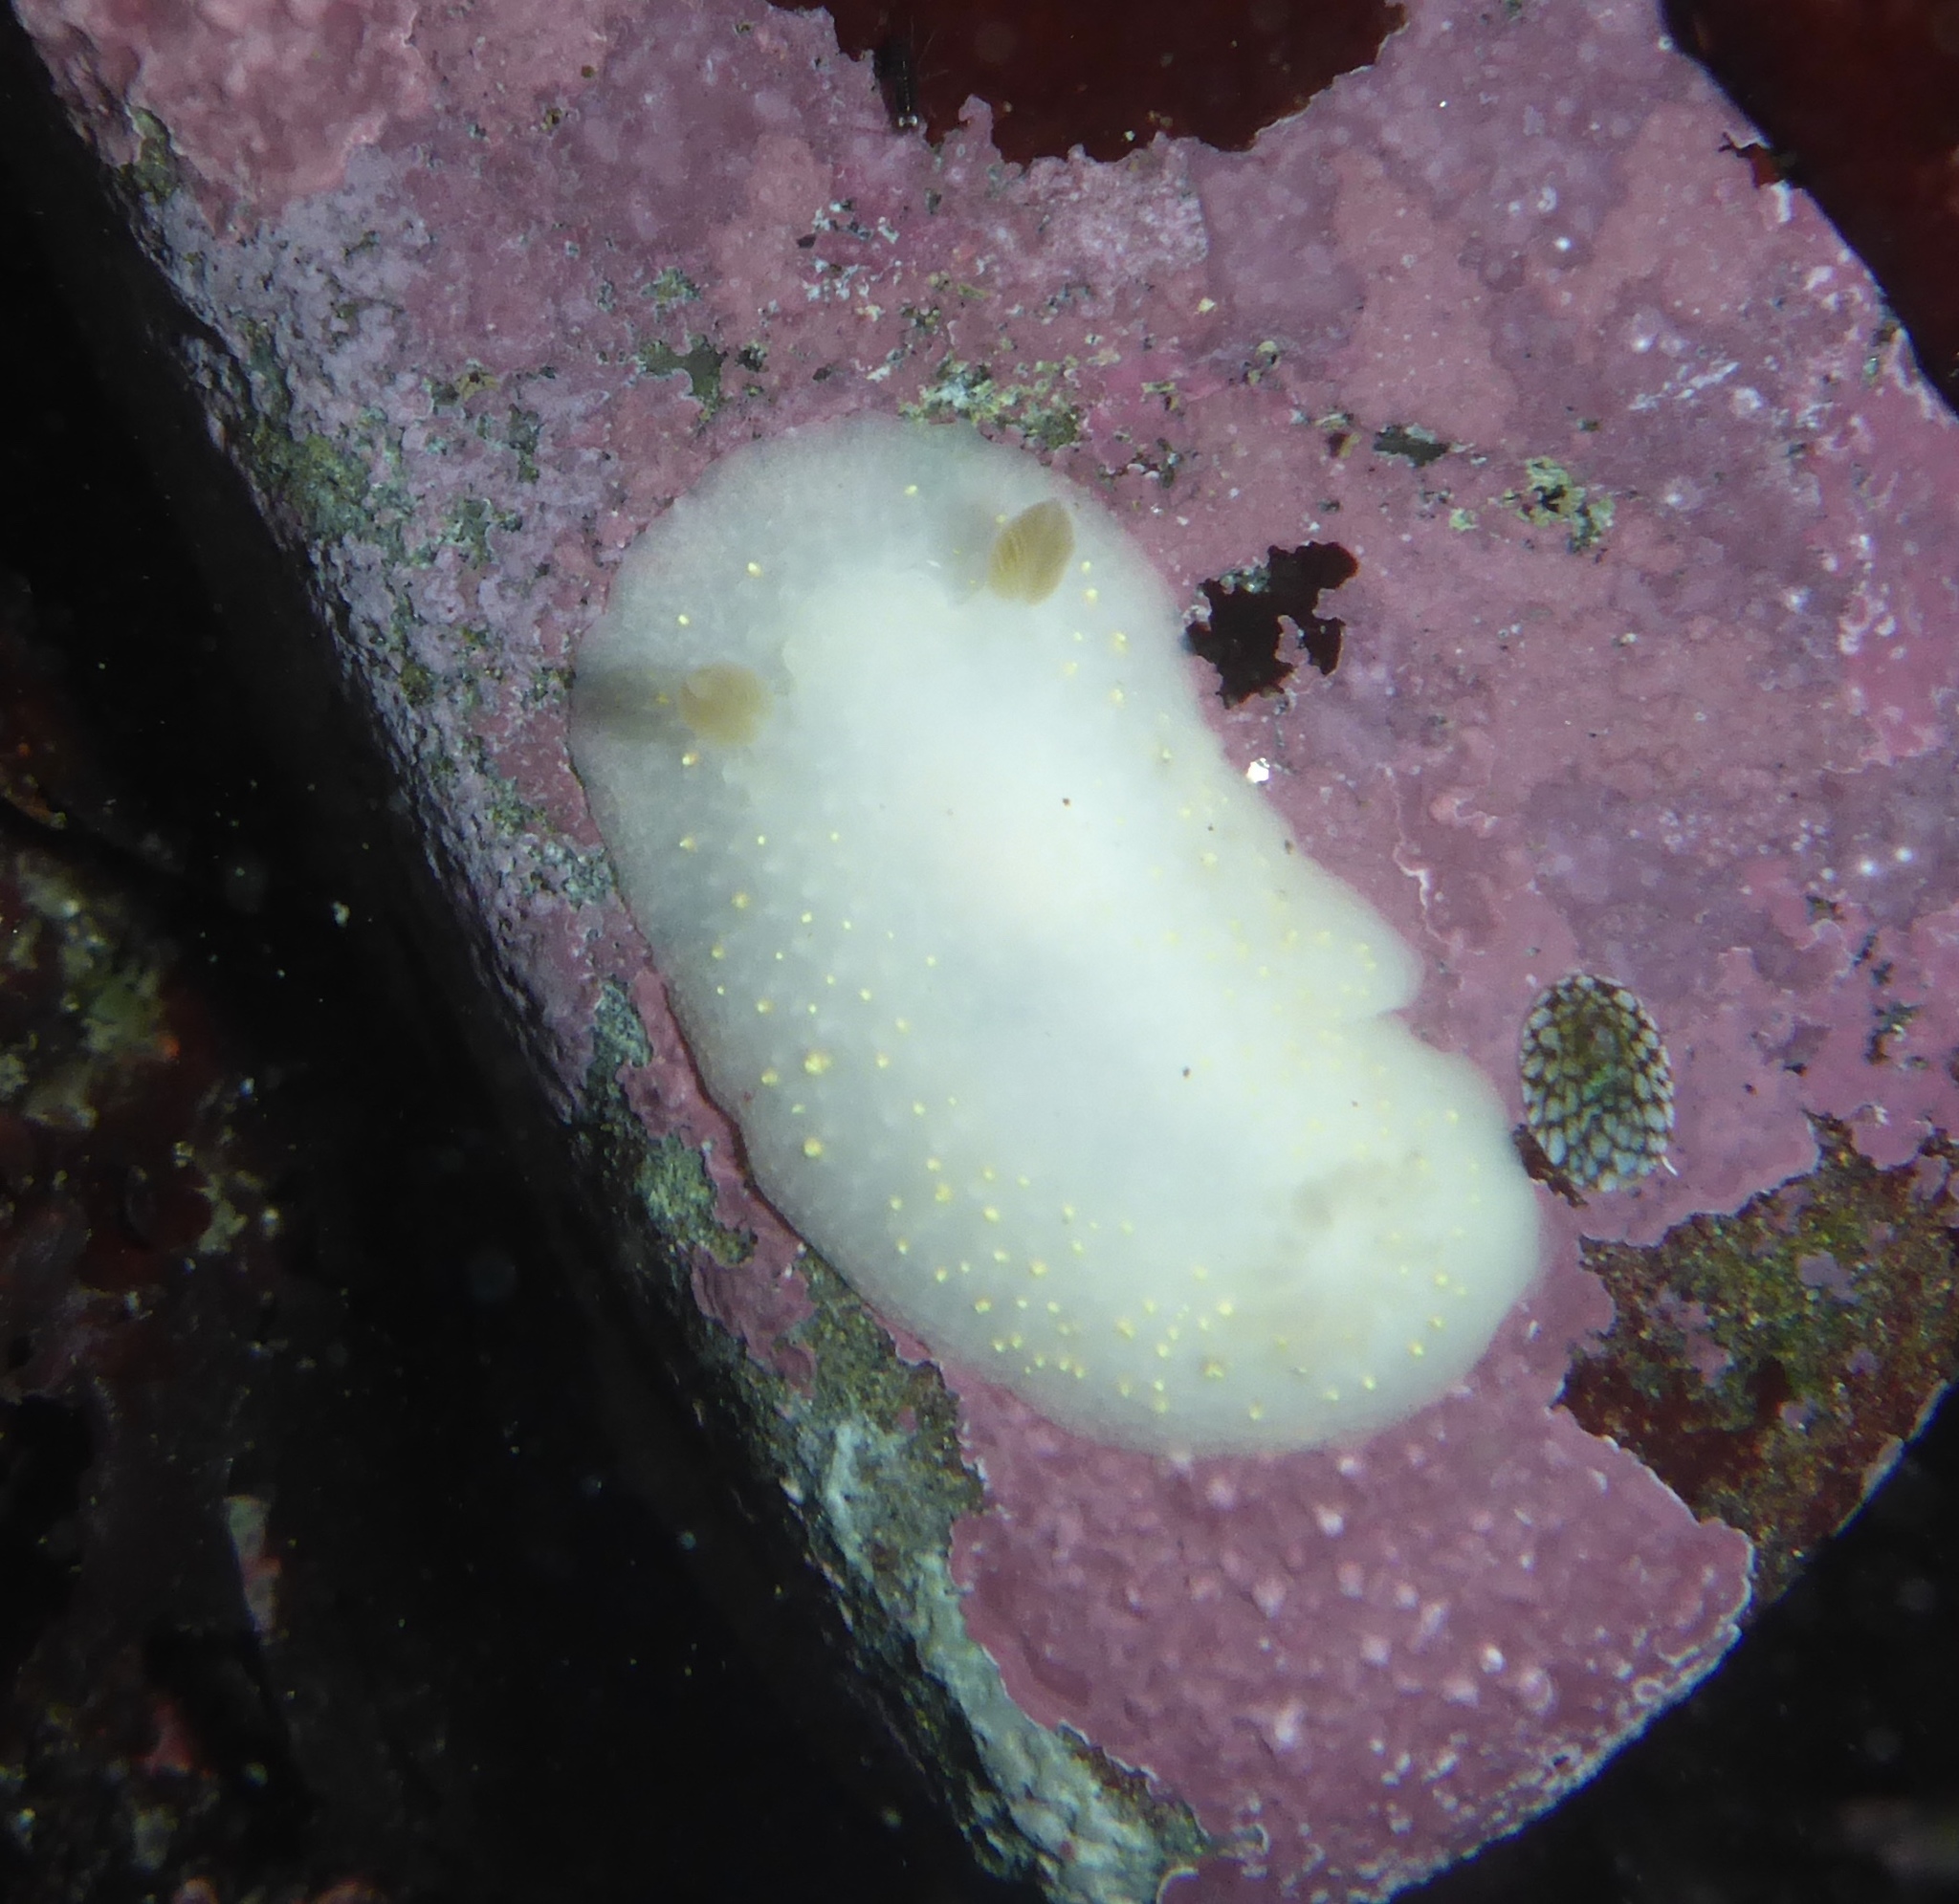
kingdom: Animalia
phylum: Mollusca
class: Gastropoda
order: Nudibranchia
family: Cadlinidae
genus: Cadlina
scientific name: Cadlina sparsa
